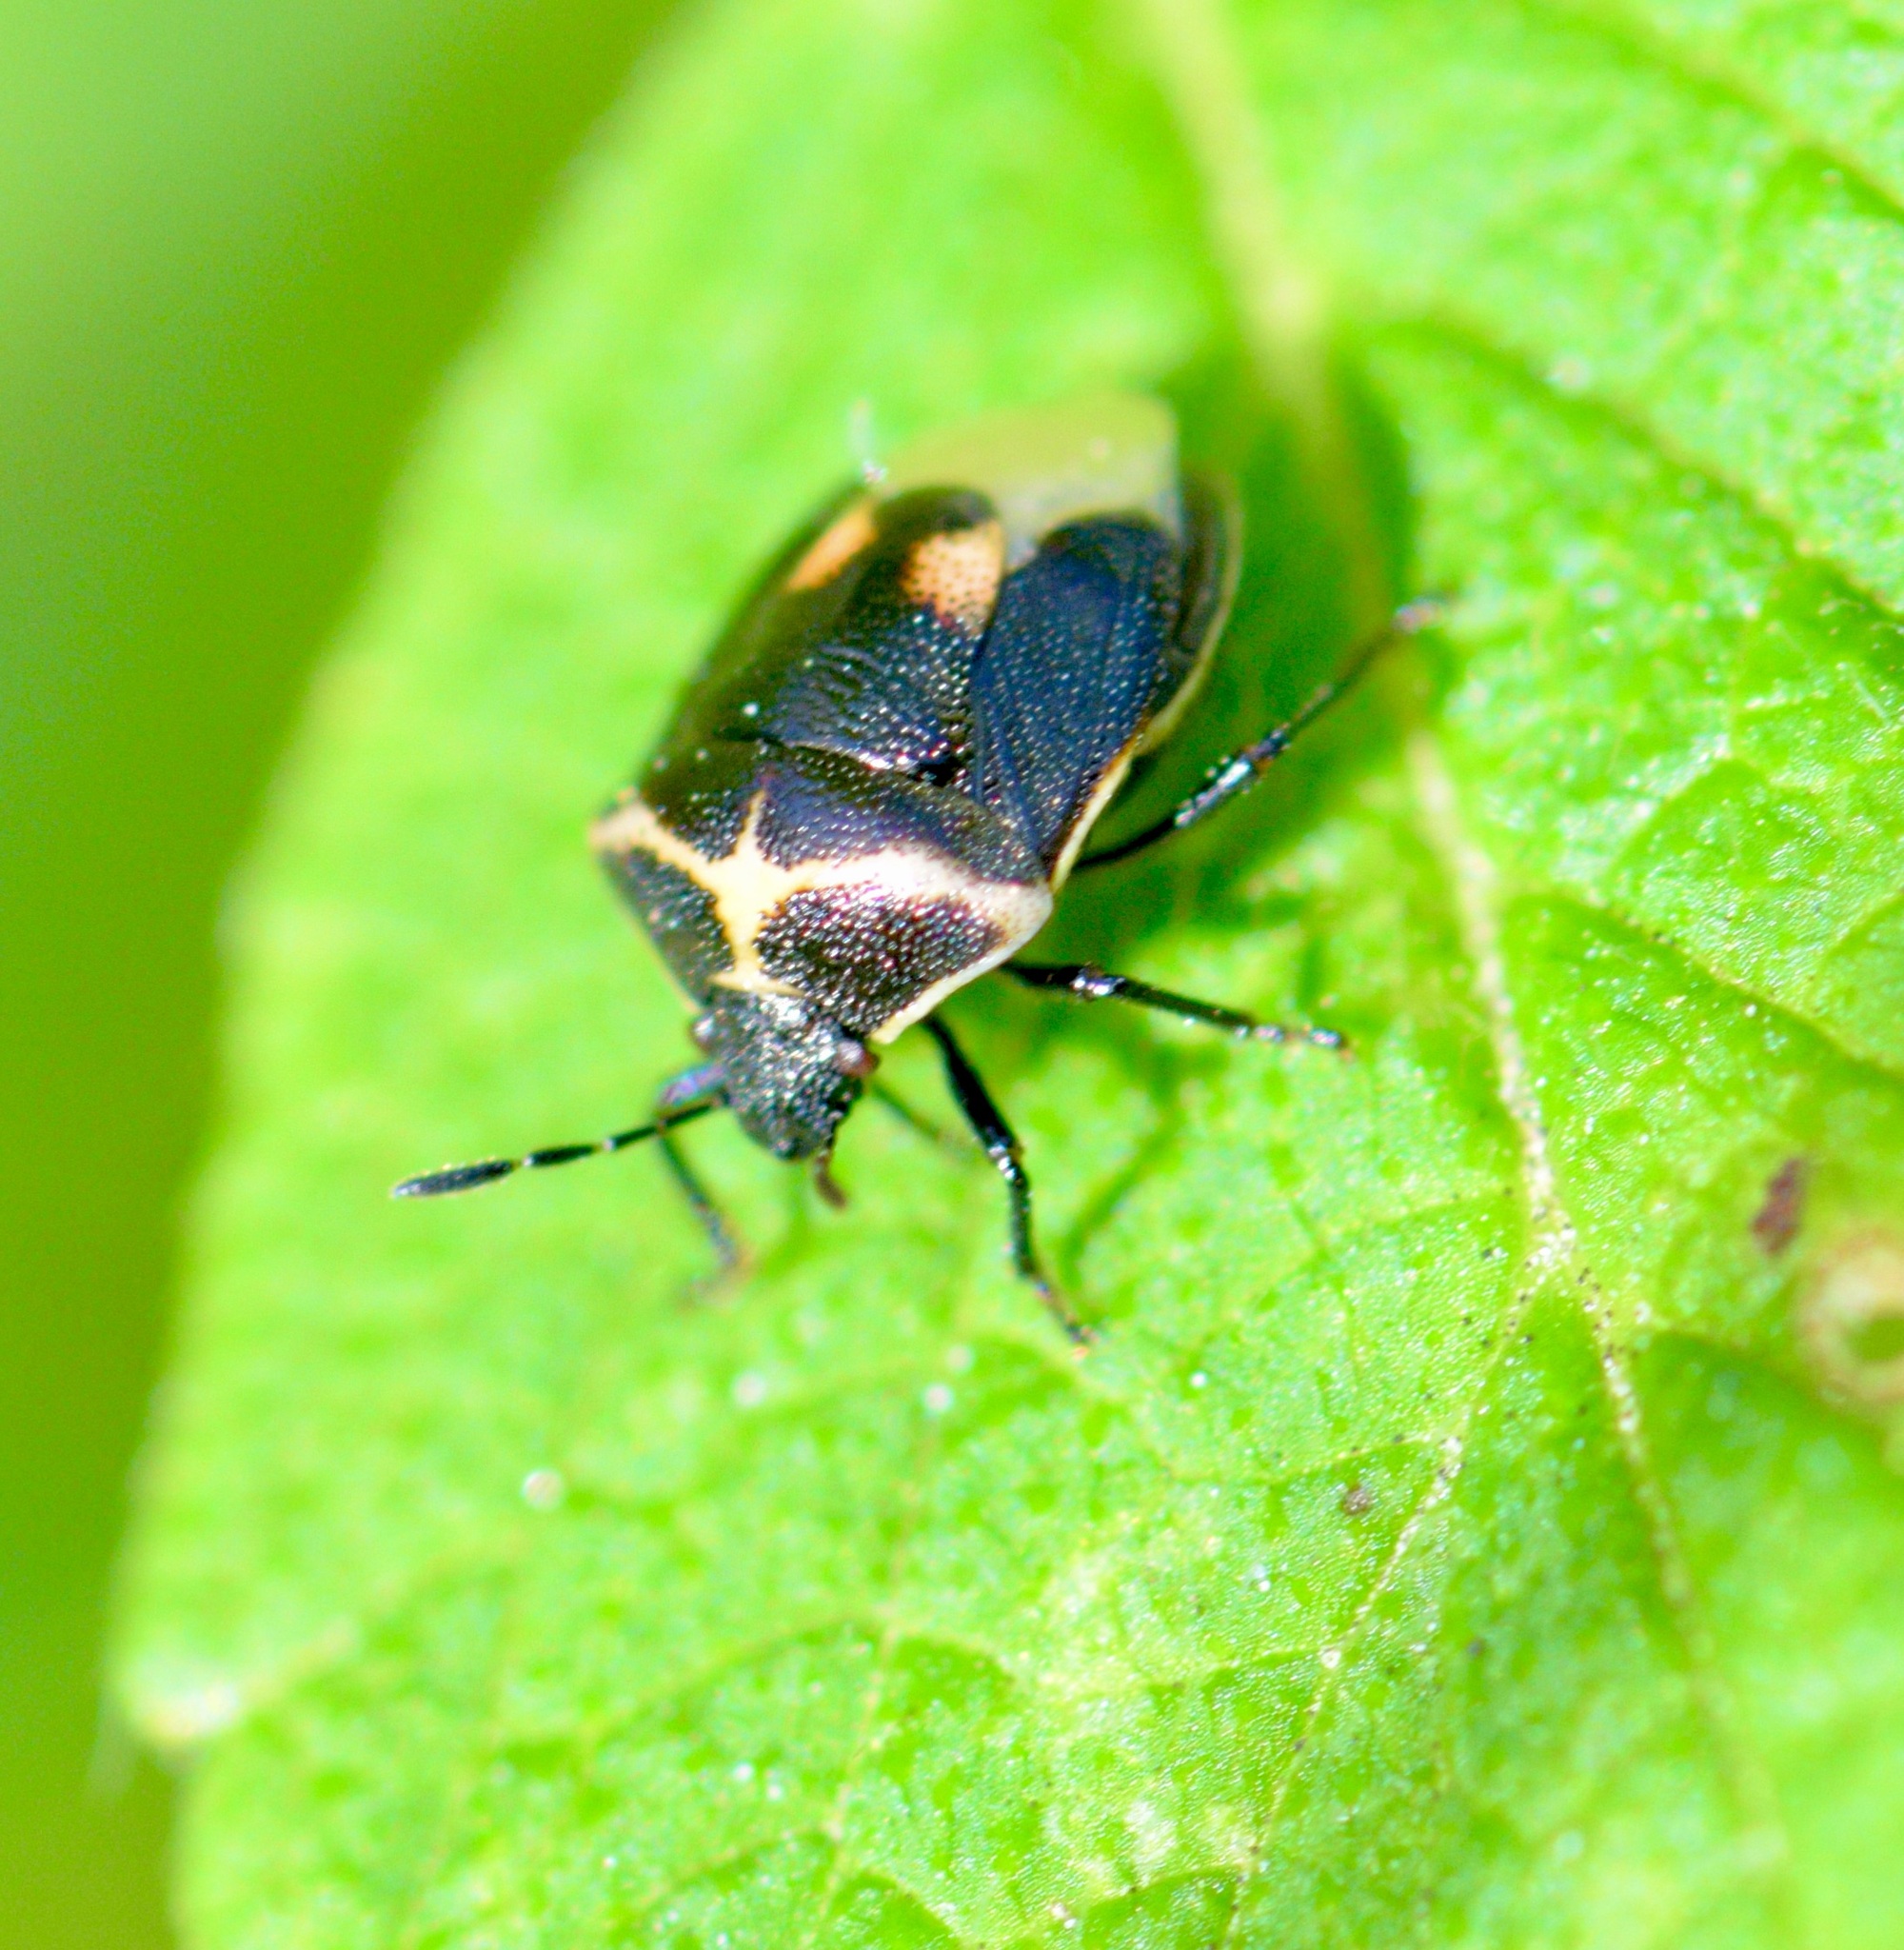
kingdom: Animalia
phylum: Arthropoda
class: Insecta
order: Hemiptera
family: Pentatomidae
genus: Cosmopepla
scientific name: Cosmopepla lintneriana
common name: Twice-stabbed stink bug
